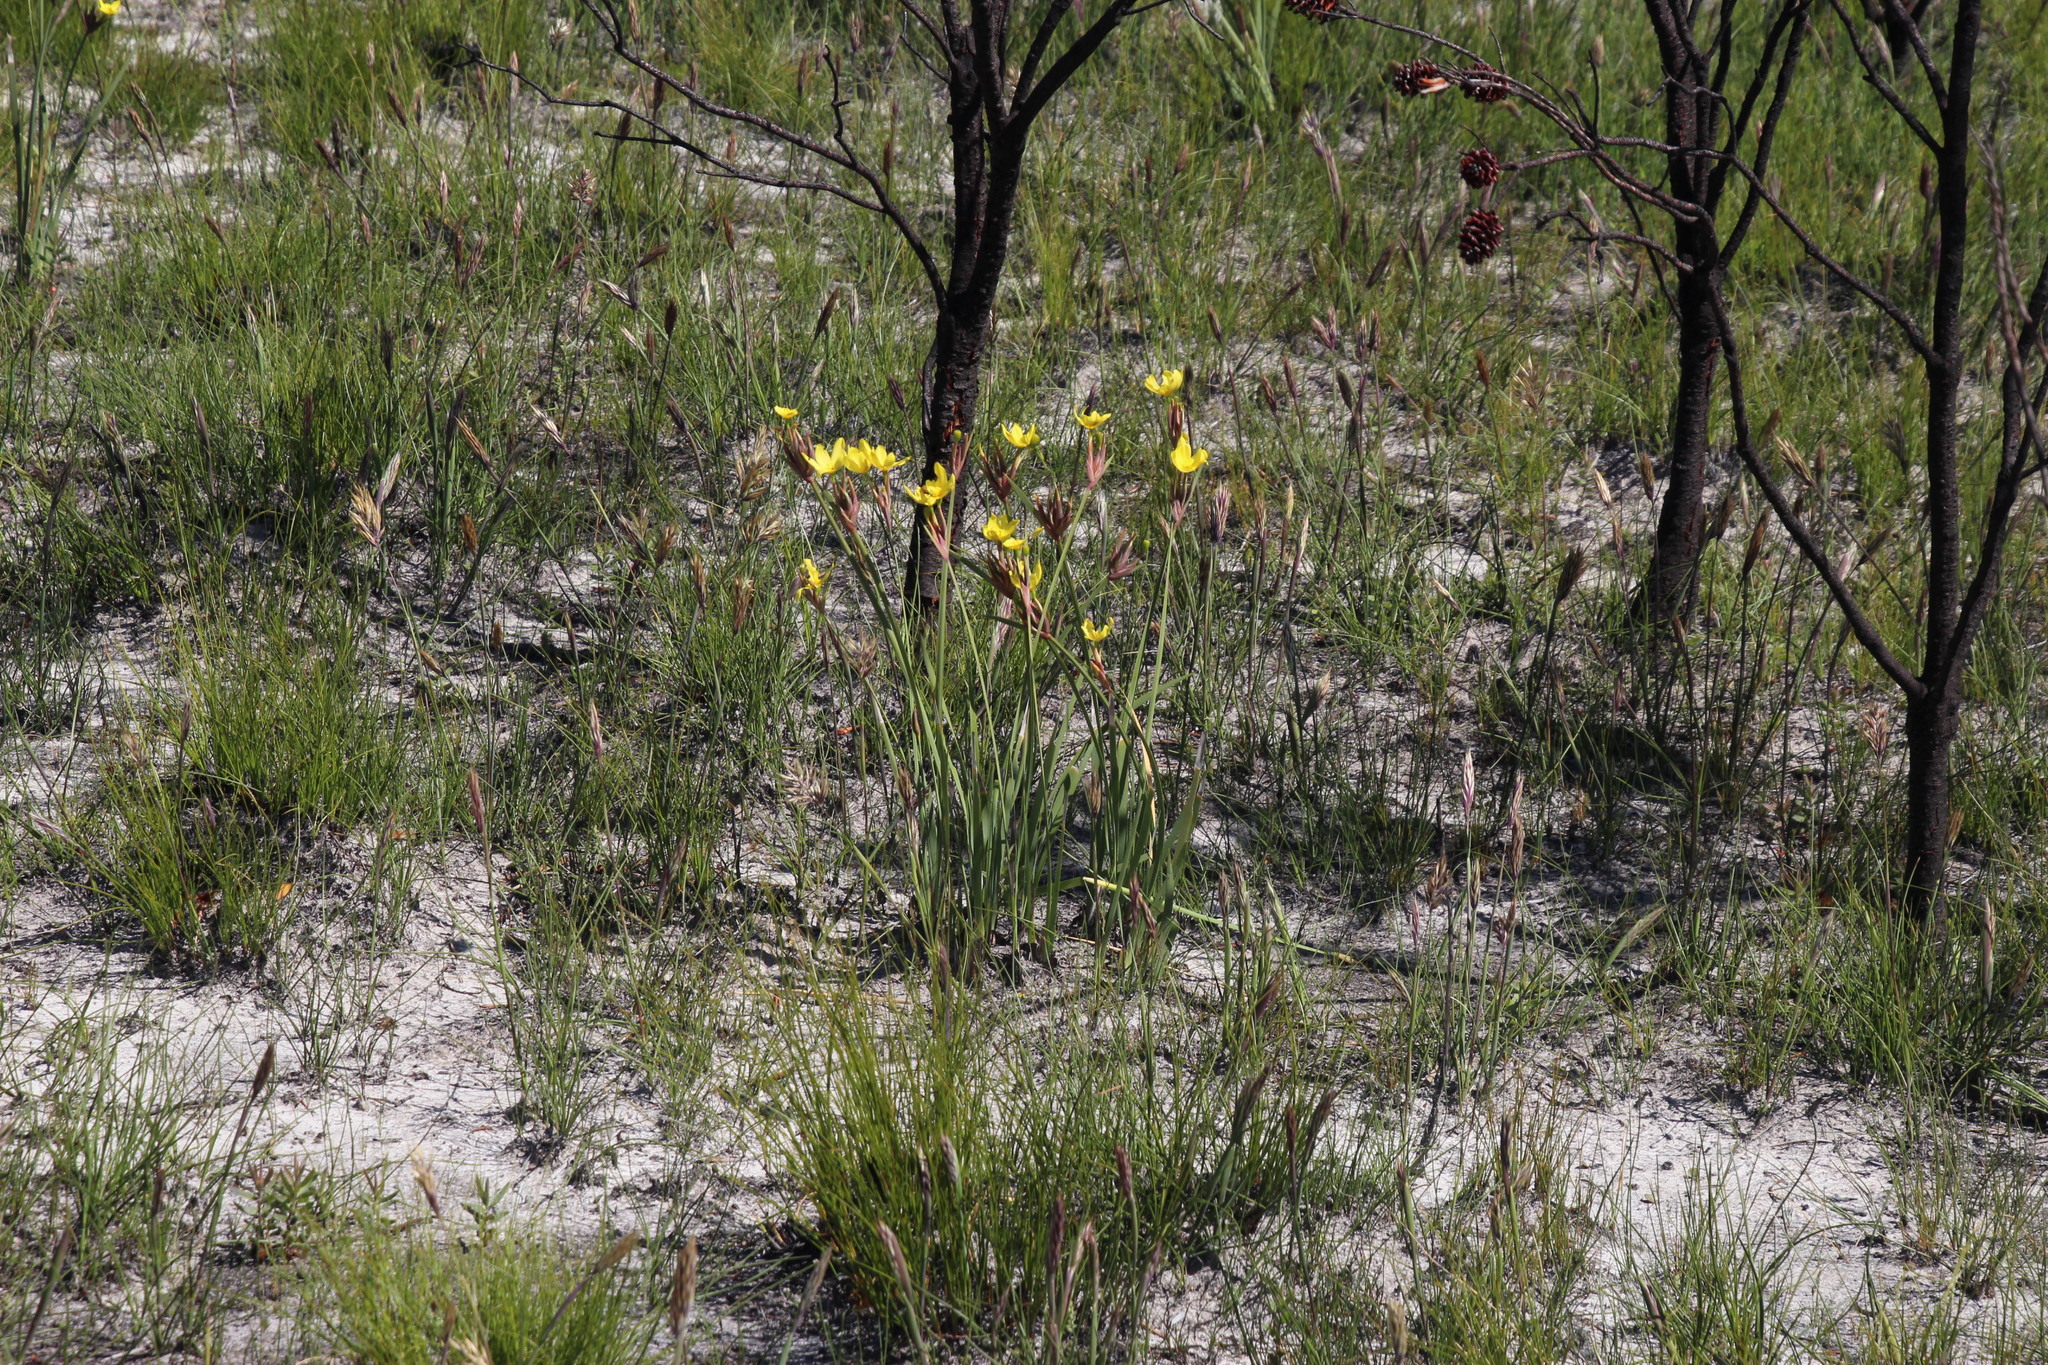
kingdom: Plantae
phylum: Tracheophyta
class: Liliopsida
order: Asparagales
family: Iridaceae
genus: Bobartia
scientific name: Bobartia gladiata
